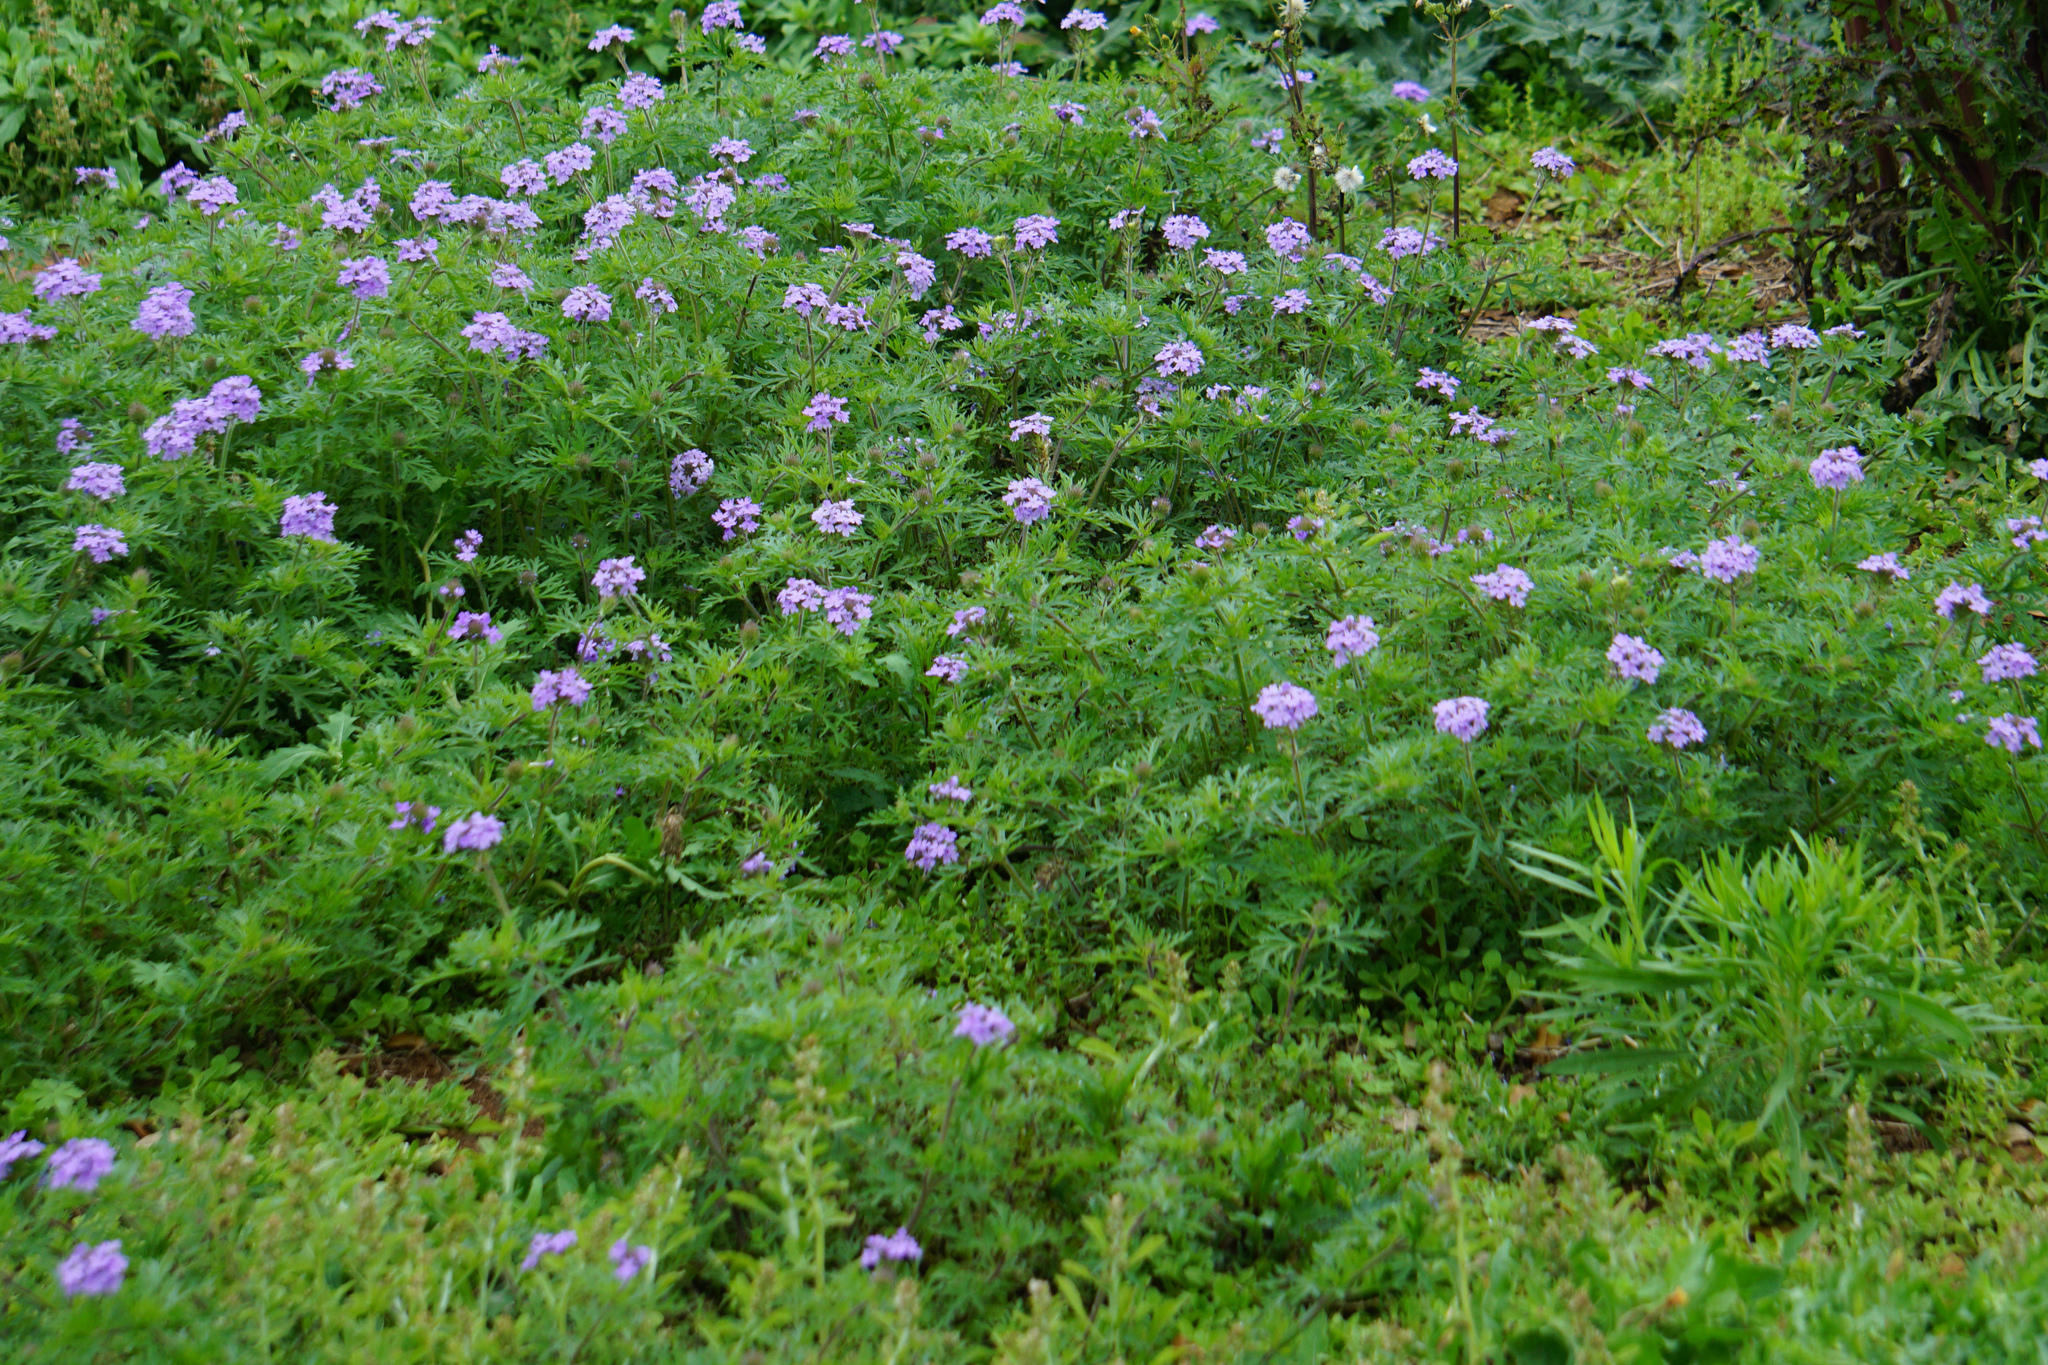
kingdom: Plantae
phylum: Tracheophyta
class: Magnoliopsida
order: Lamiales
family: Verbenaceae
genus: Verbena
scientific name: Verbena bipinnatifida
